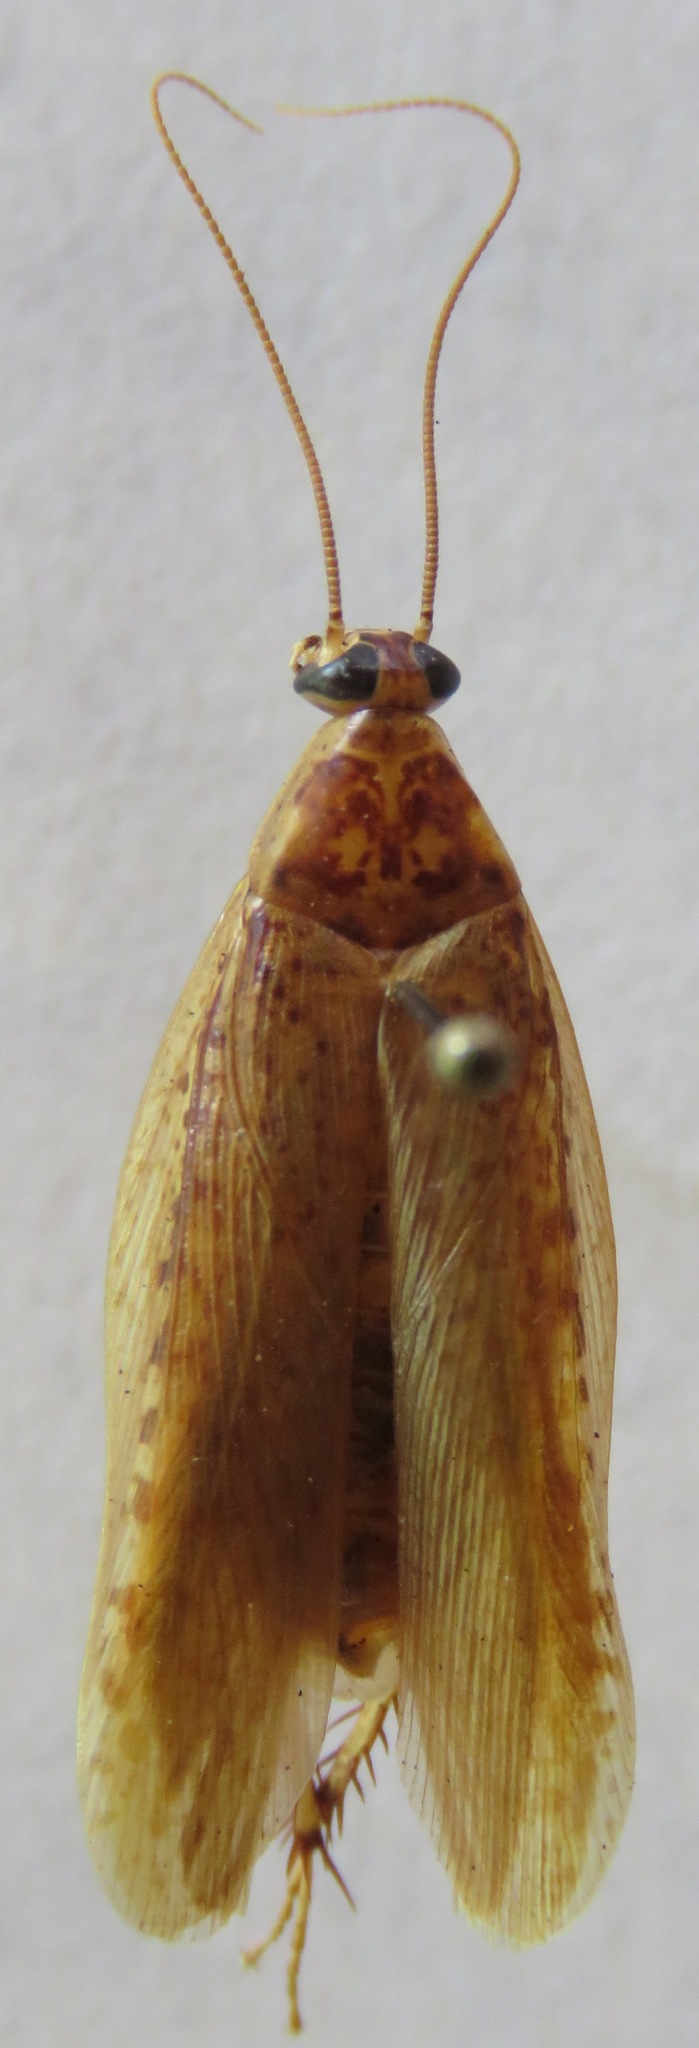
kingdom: Animalia
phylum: Arthropoda
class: Insecta
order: Blattodea
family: Blaberidae
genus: Epilampra
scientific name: Epilampra mexicana
